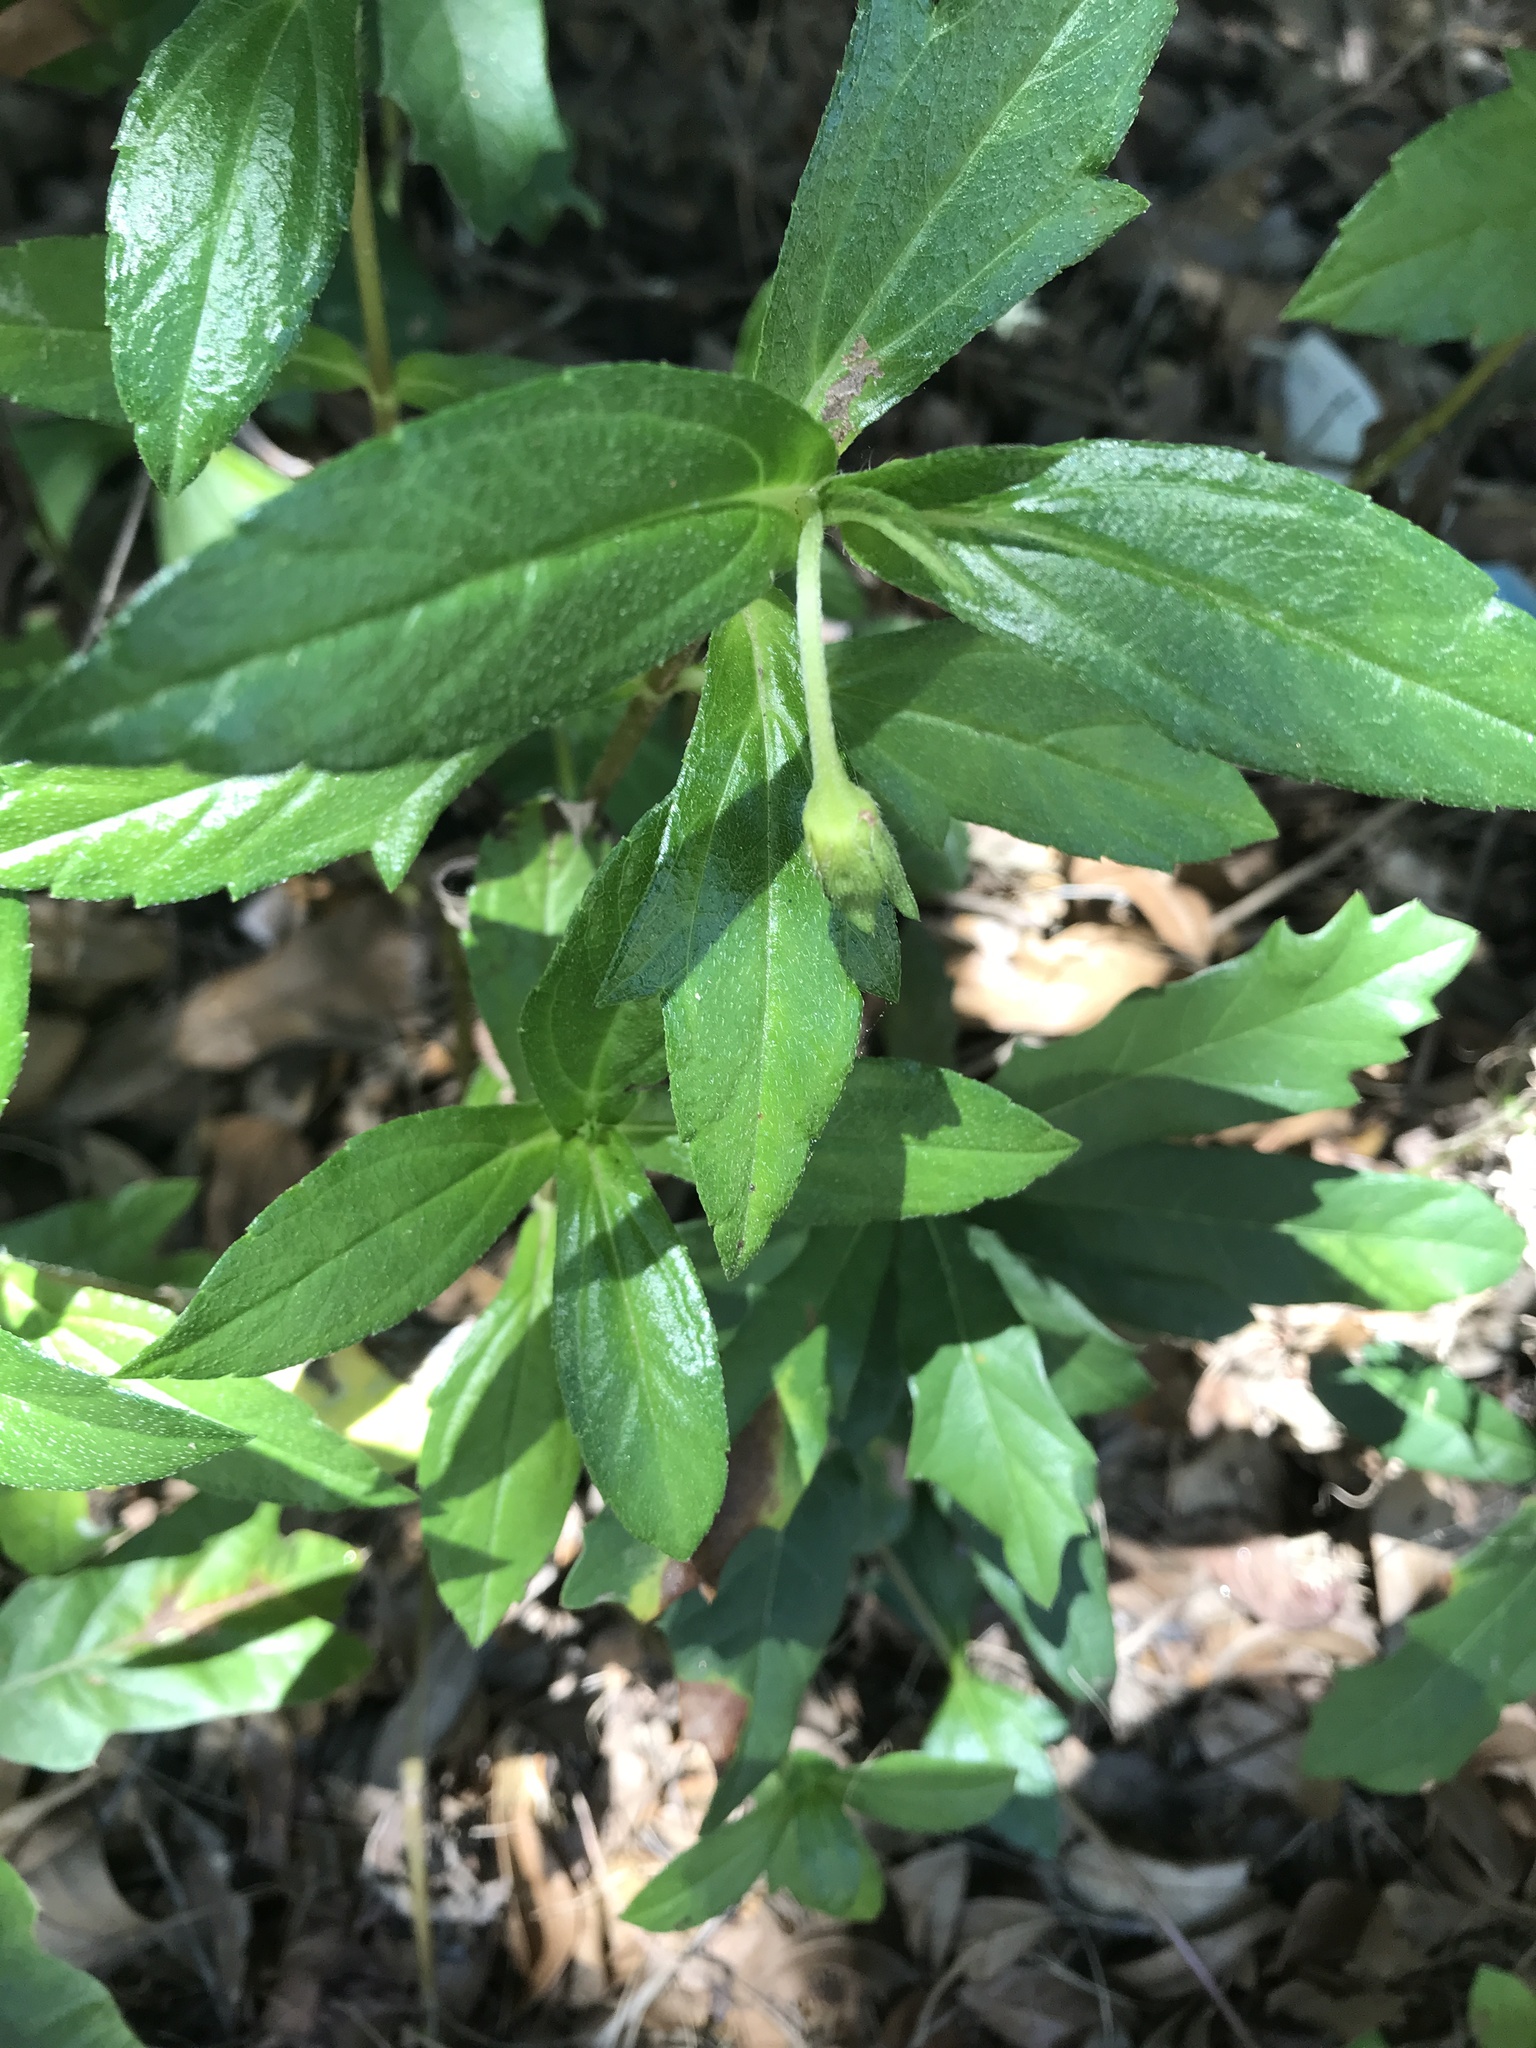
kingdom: Plantae
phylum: Tracheophyta
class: Magnoliopsida
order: Asterales
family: Asteraceae
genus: Eclipta
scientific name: Eclipta prostrata
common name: False daisy
